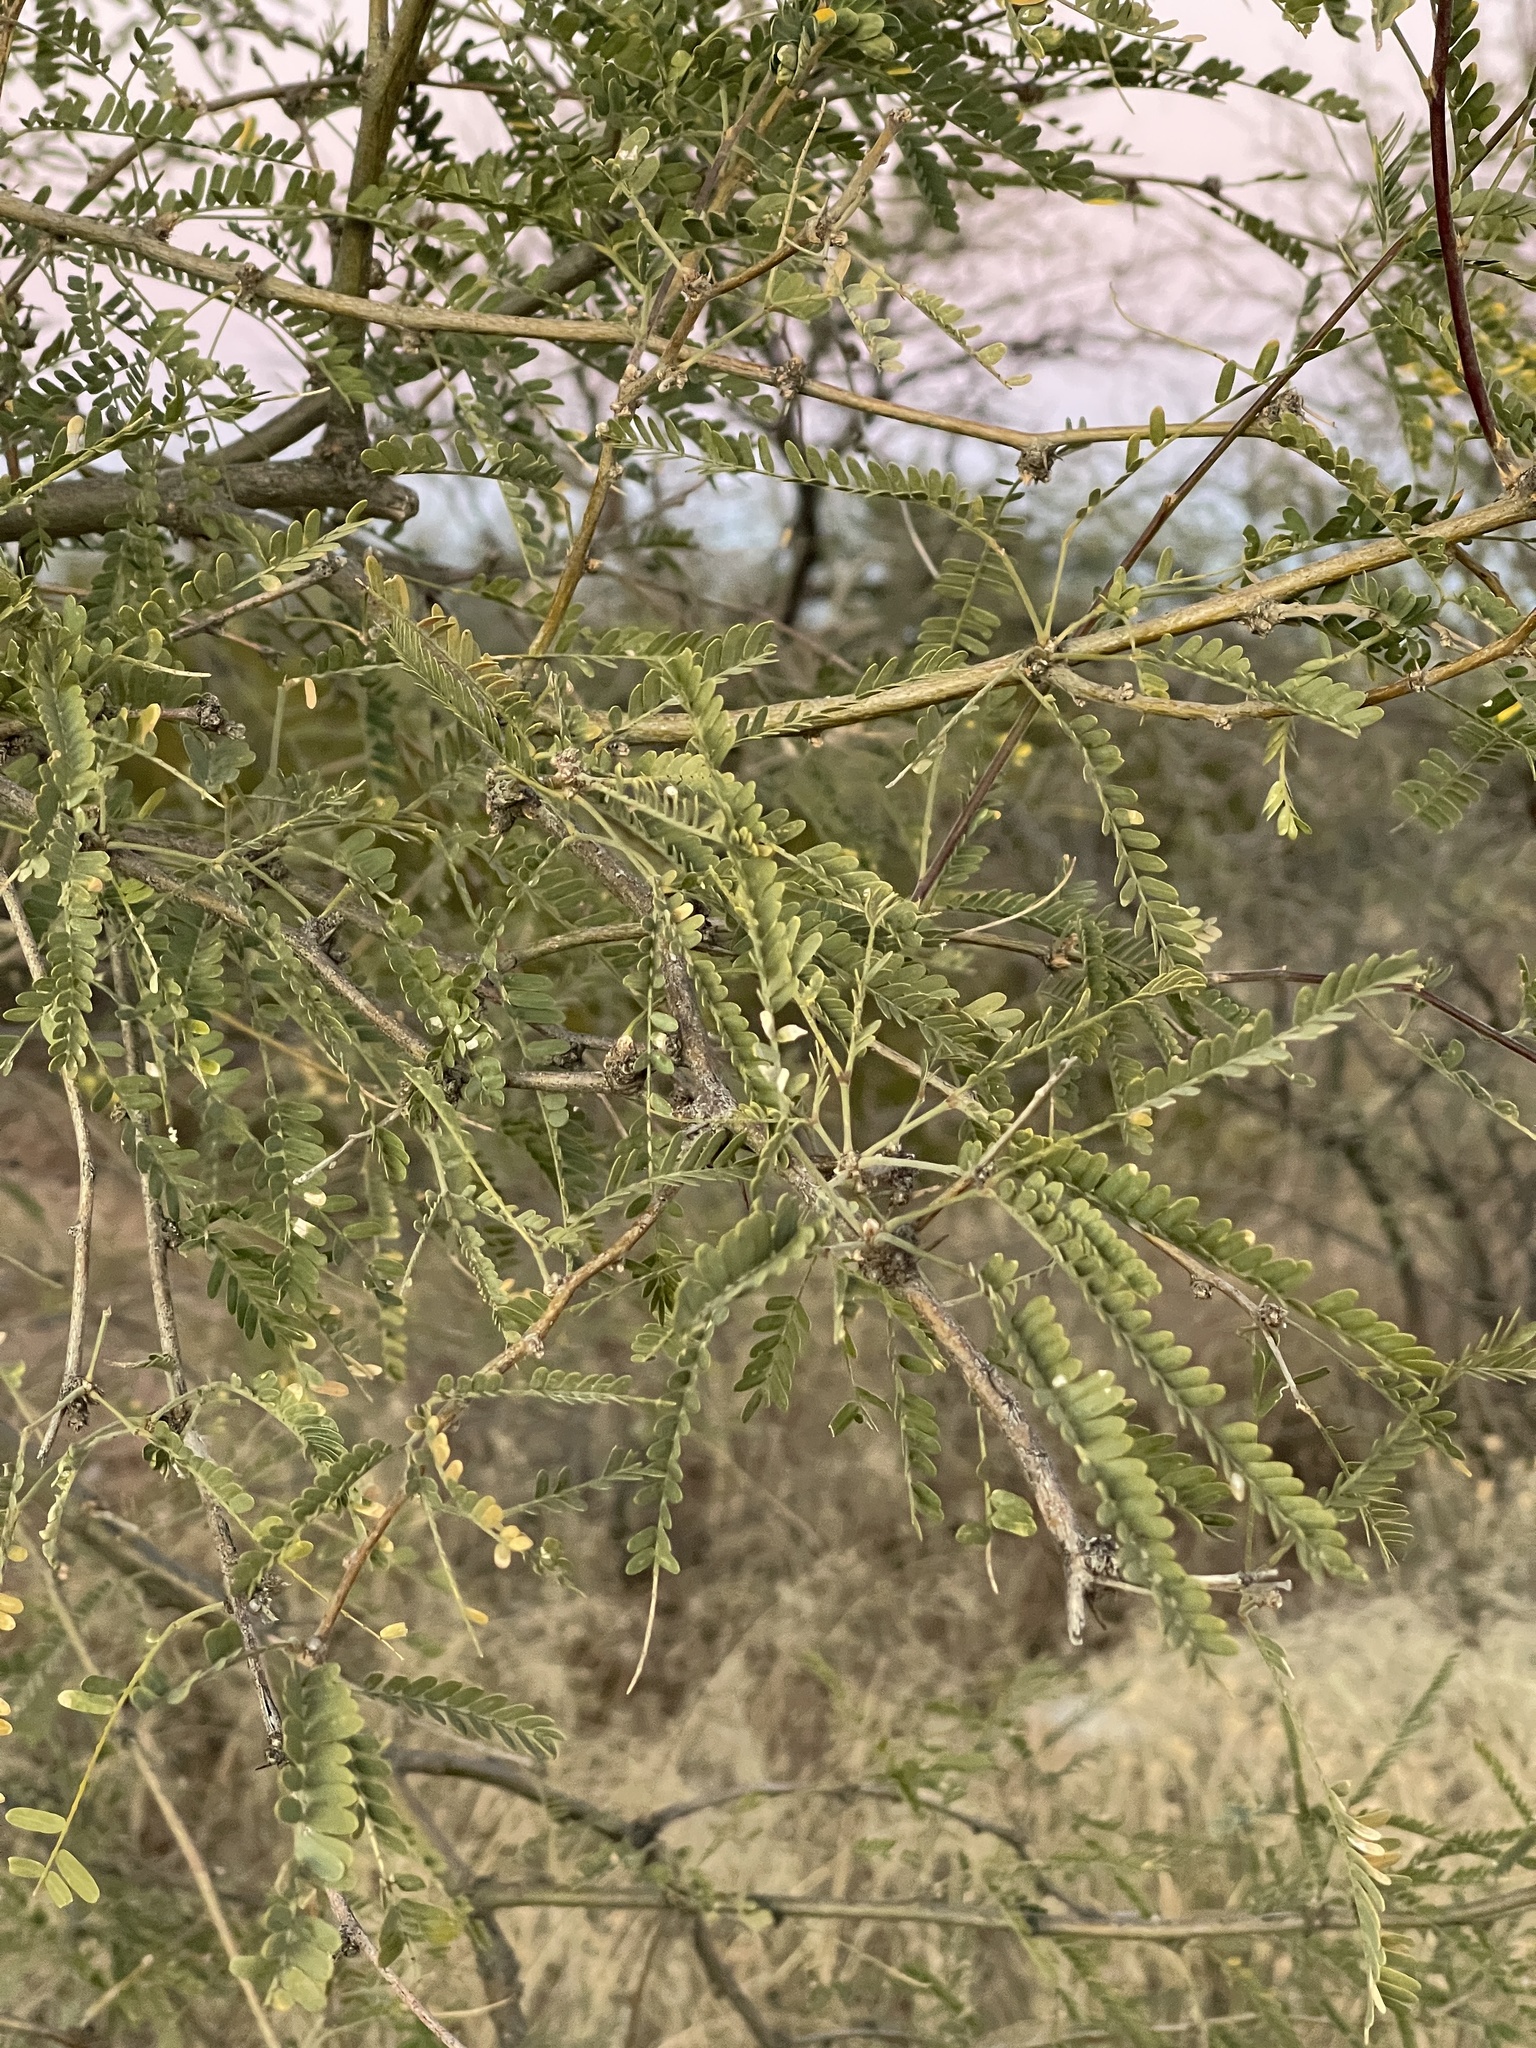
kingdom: Plantae
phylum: Tracheophyta
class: Magnoliopsida
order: Fabales
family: Fabaceae
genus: Prosopis
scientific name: Prosopis velutina
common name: Velvet mesquite
